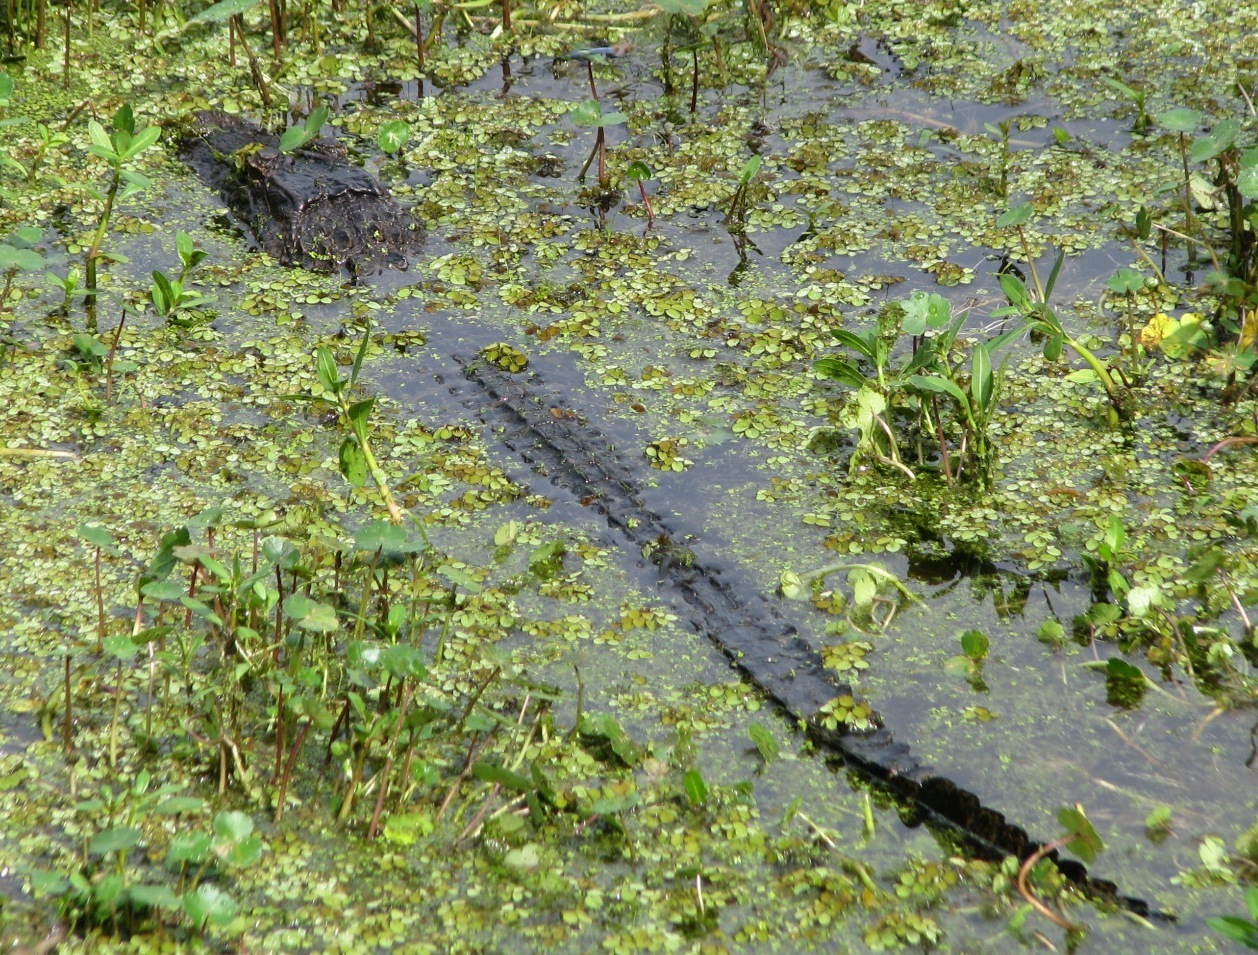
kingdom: Animalia
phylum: Chordata
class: Crocodylia
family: Alligatoridae
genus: Alligator
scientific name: Alligator mississippiensis
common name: American alligator
